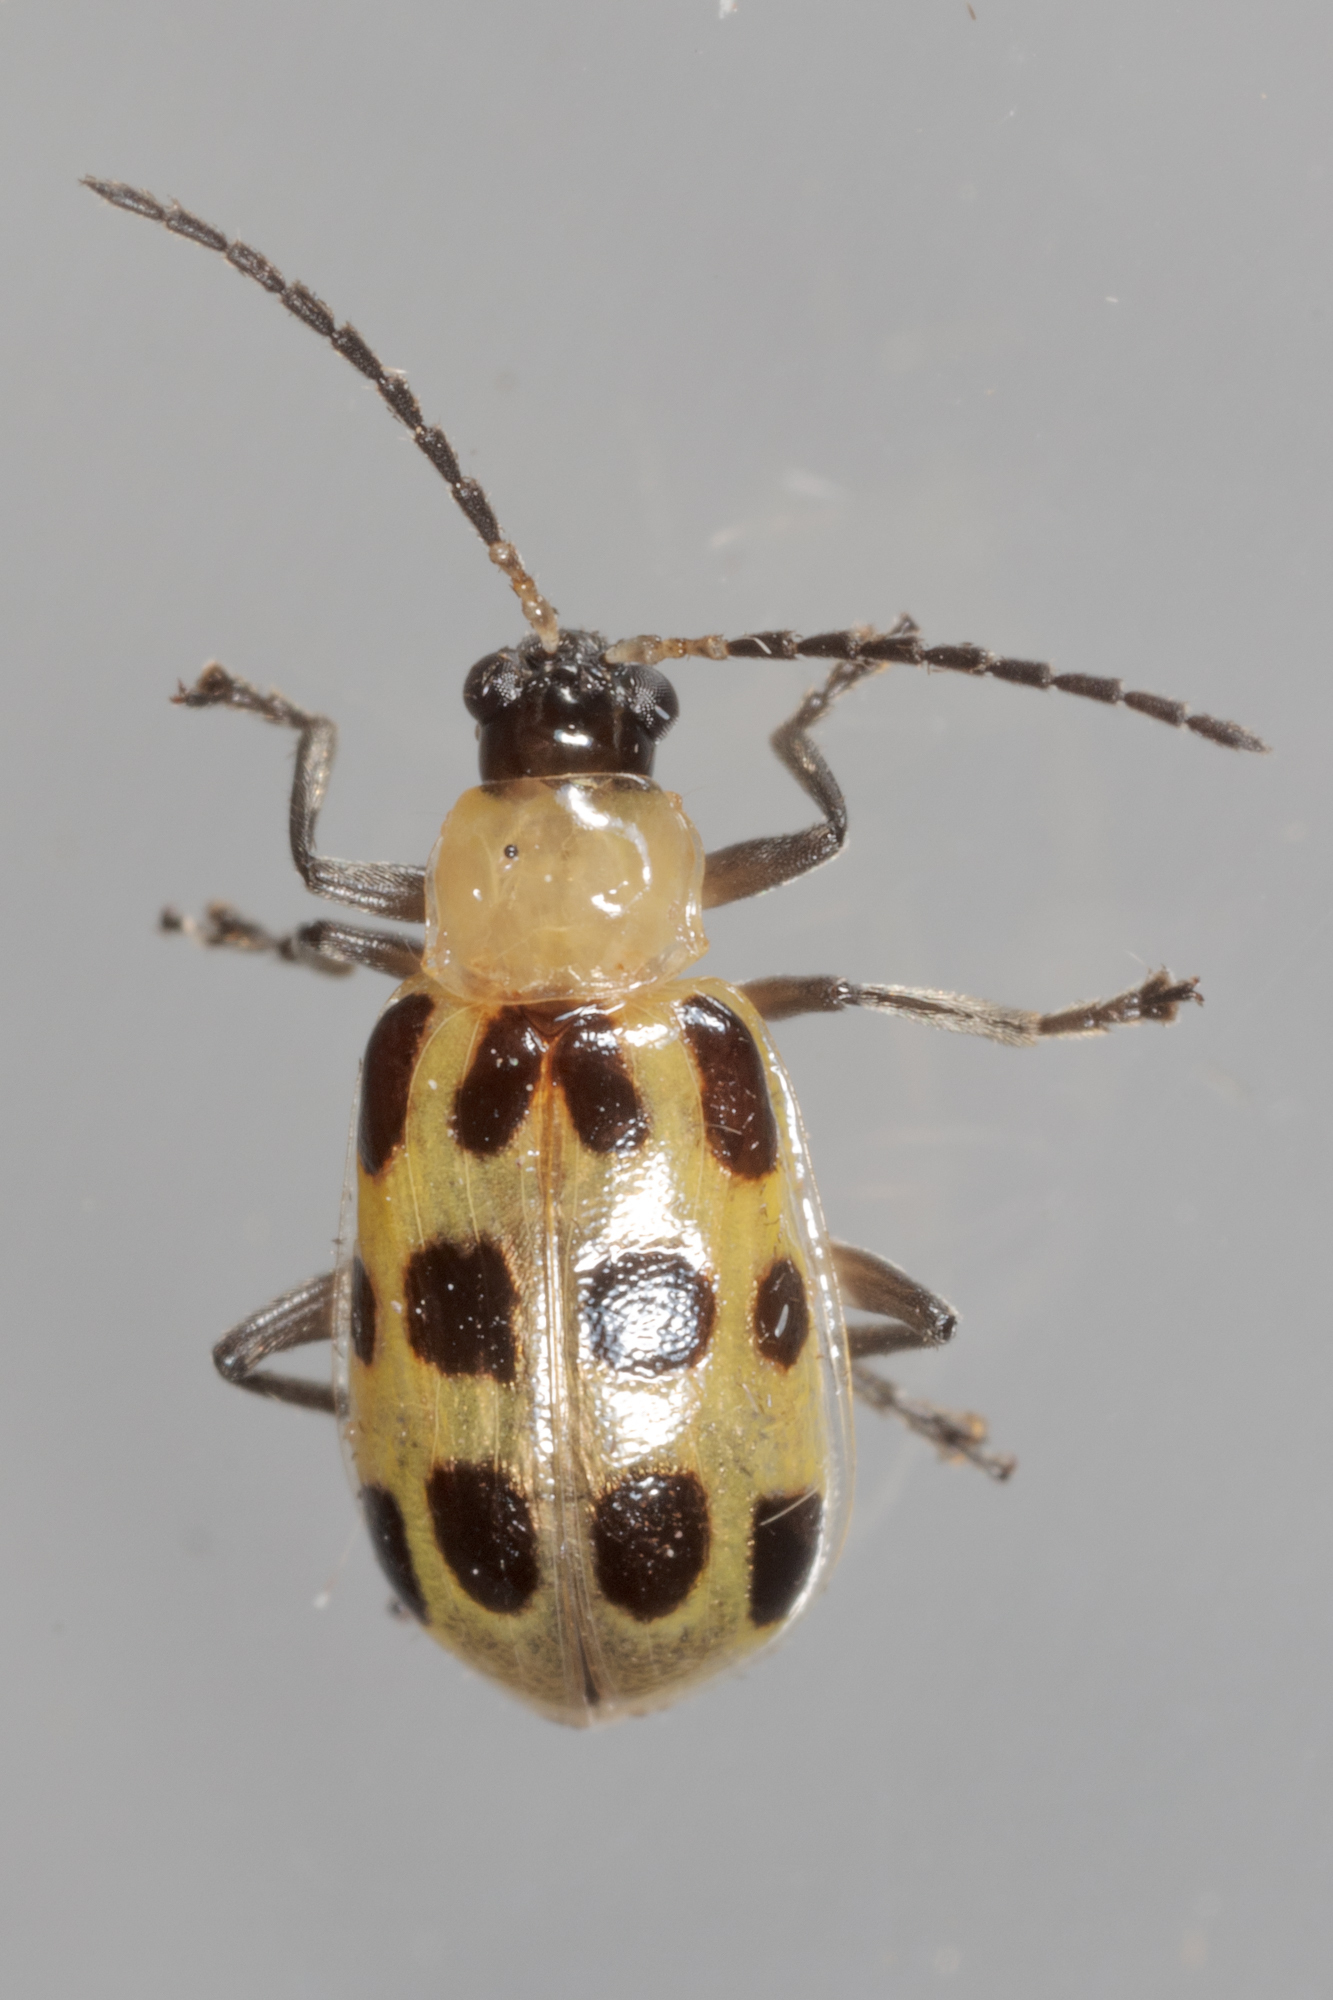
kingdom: Animalia
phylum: Arthropoda
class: Insecta
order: Coleoptera
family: Chrysomelidae
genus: Diabrotica
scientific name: Diabrotica undecimpunctata
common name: Spotted cucumber beetle
